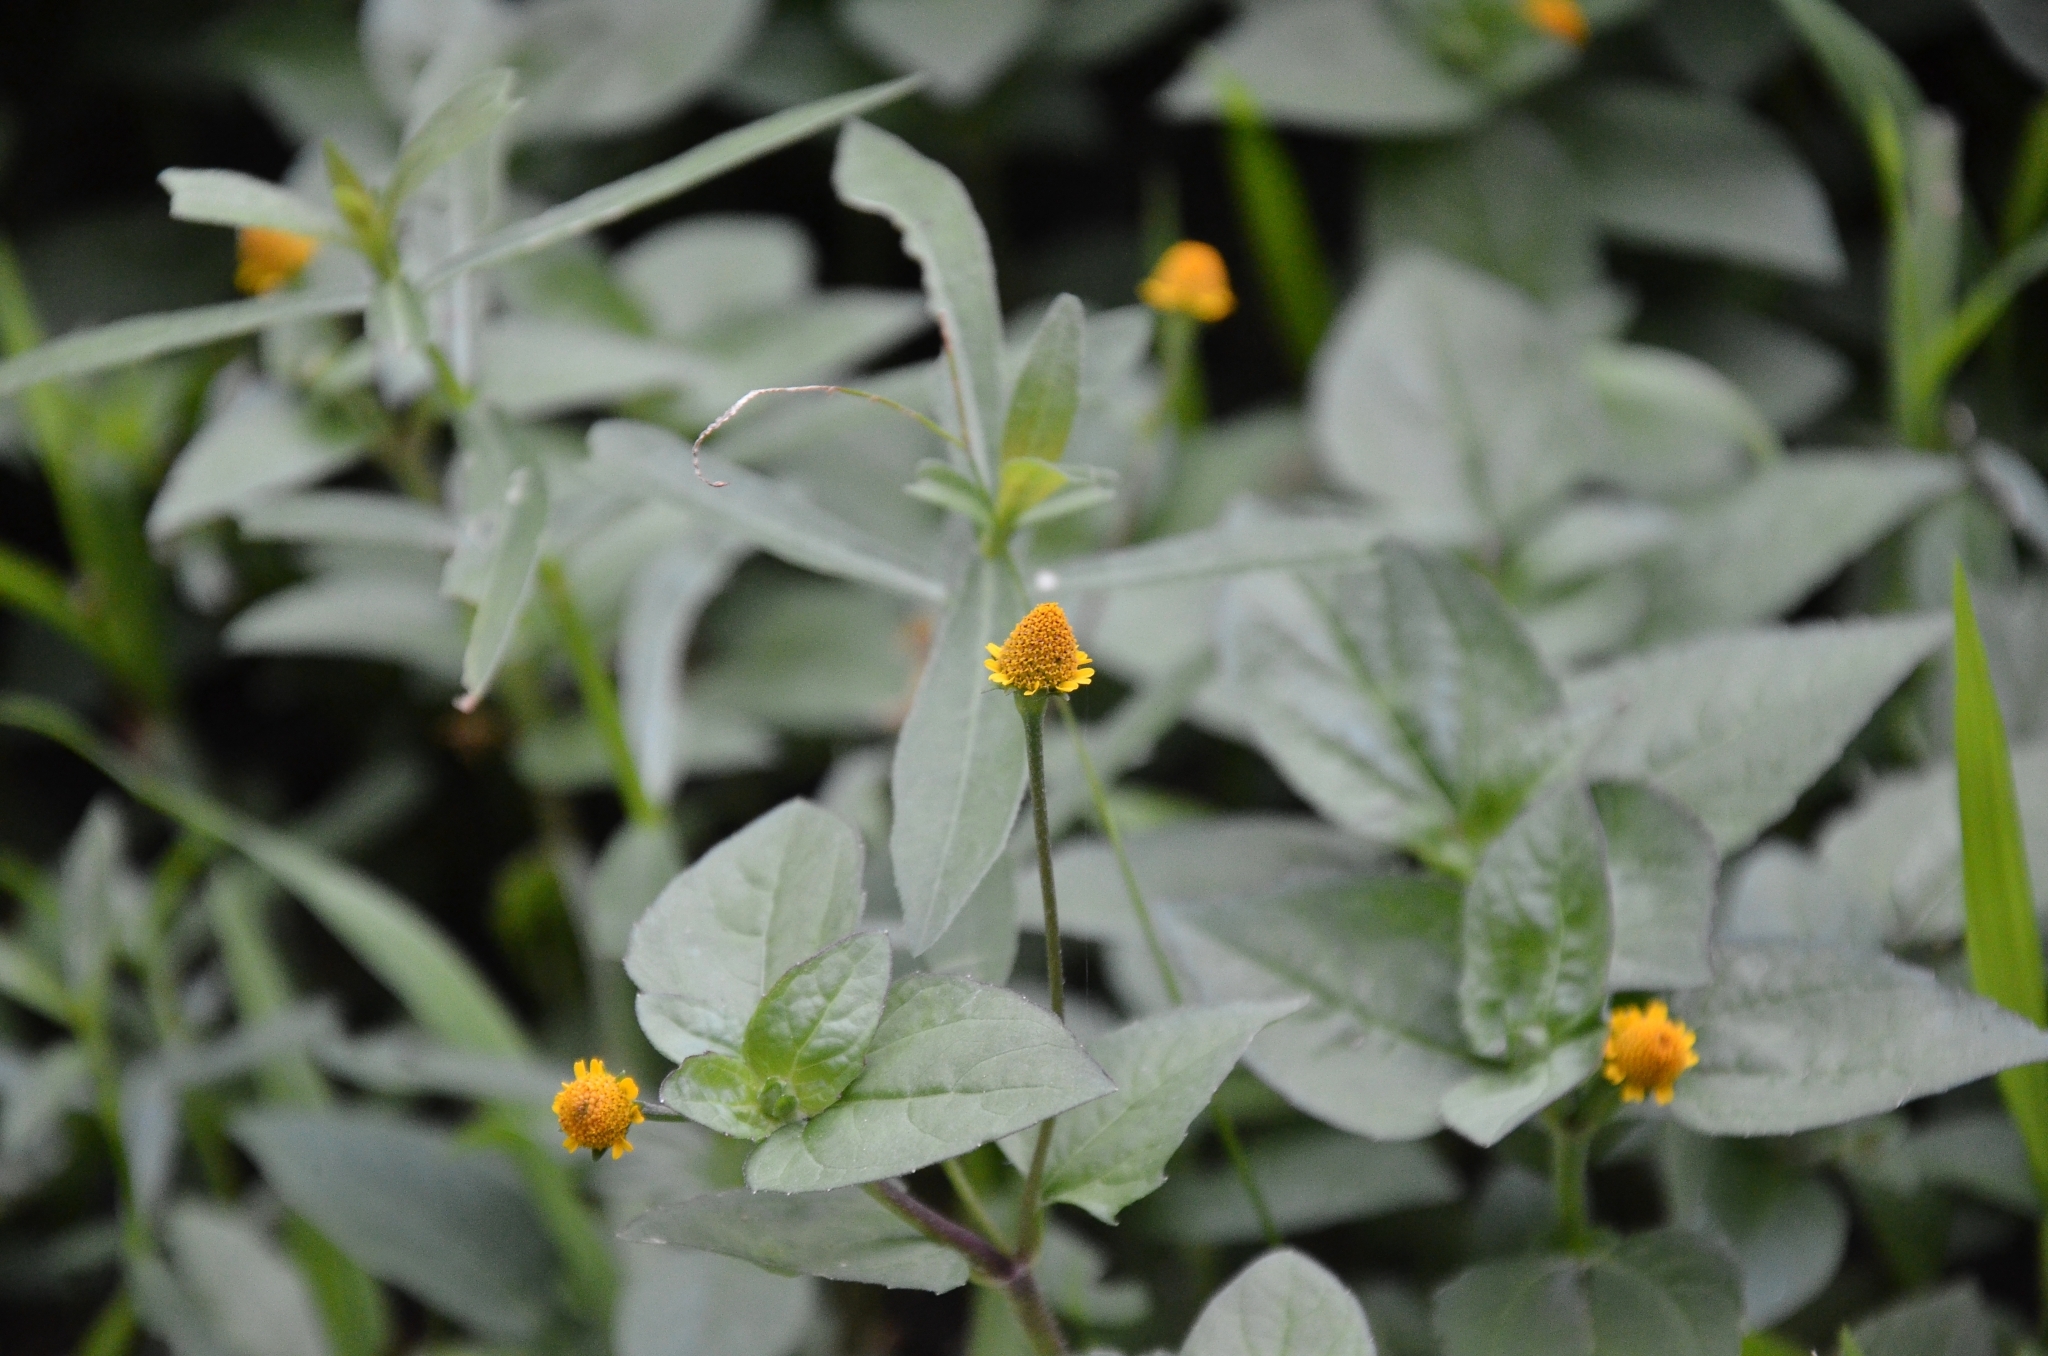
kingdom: Plantae
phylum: Tracheophyta
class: Magnoliopsida
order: Asterales
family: Asteraceae
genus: Acmella
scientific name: Acmella uliginosa
